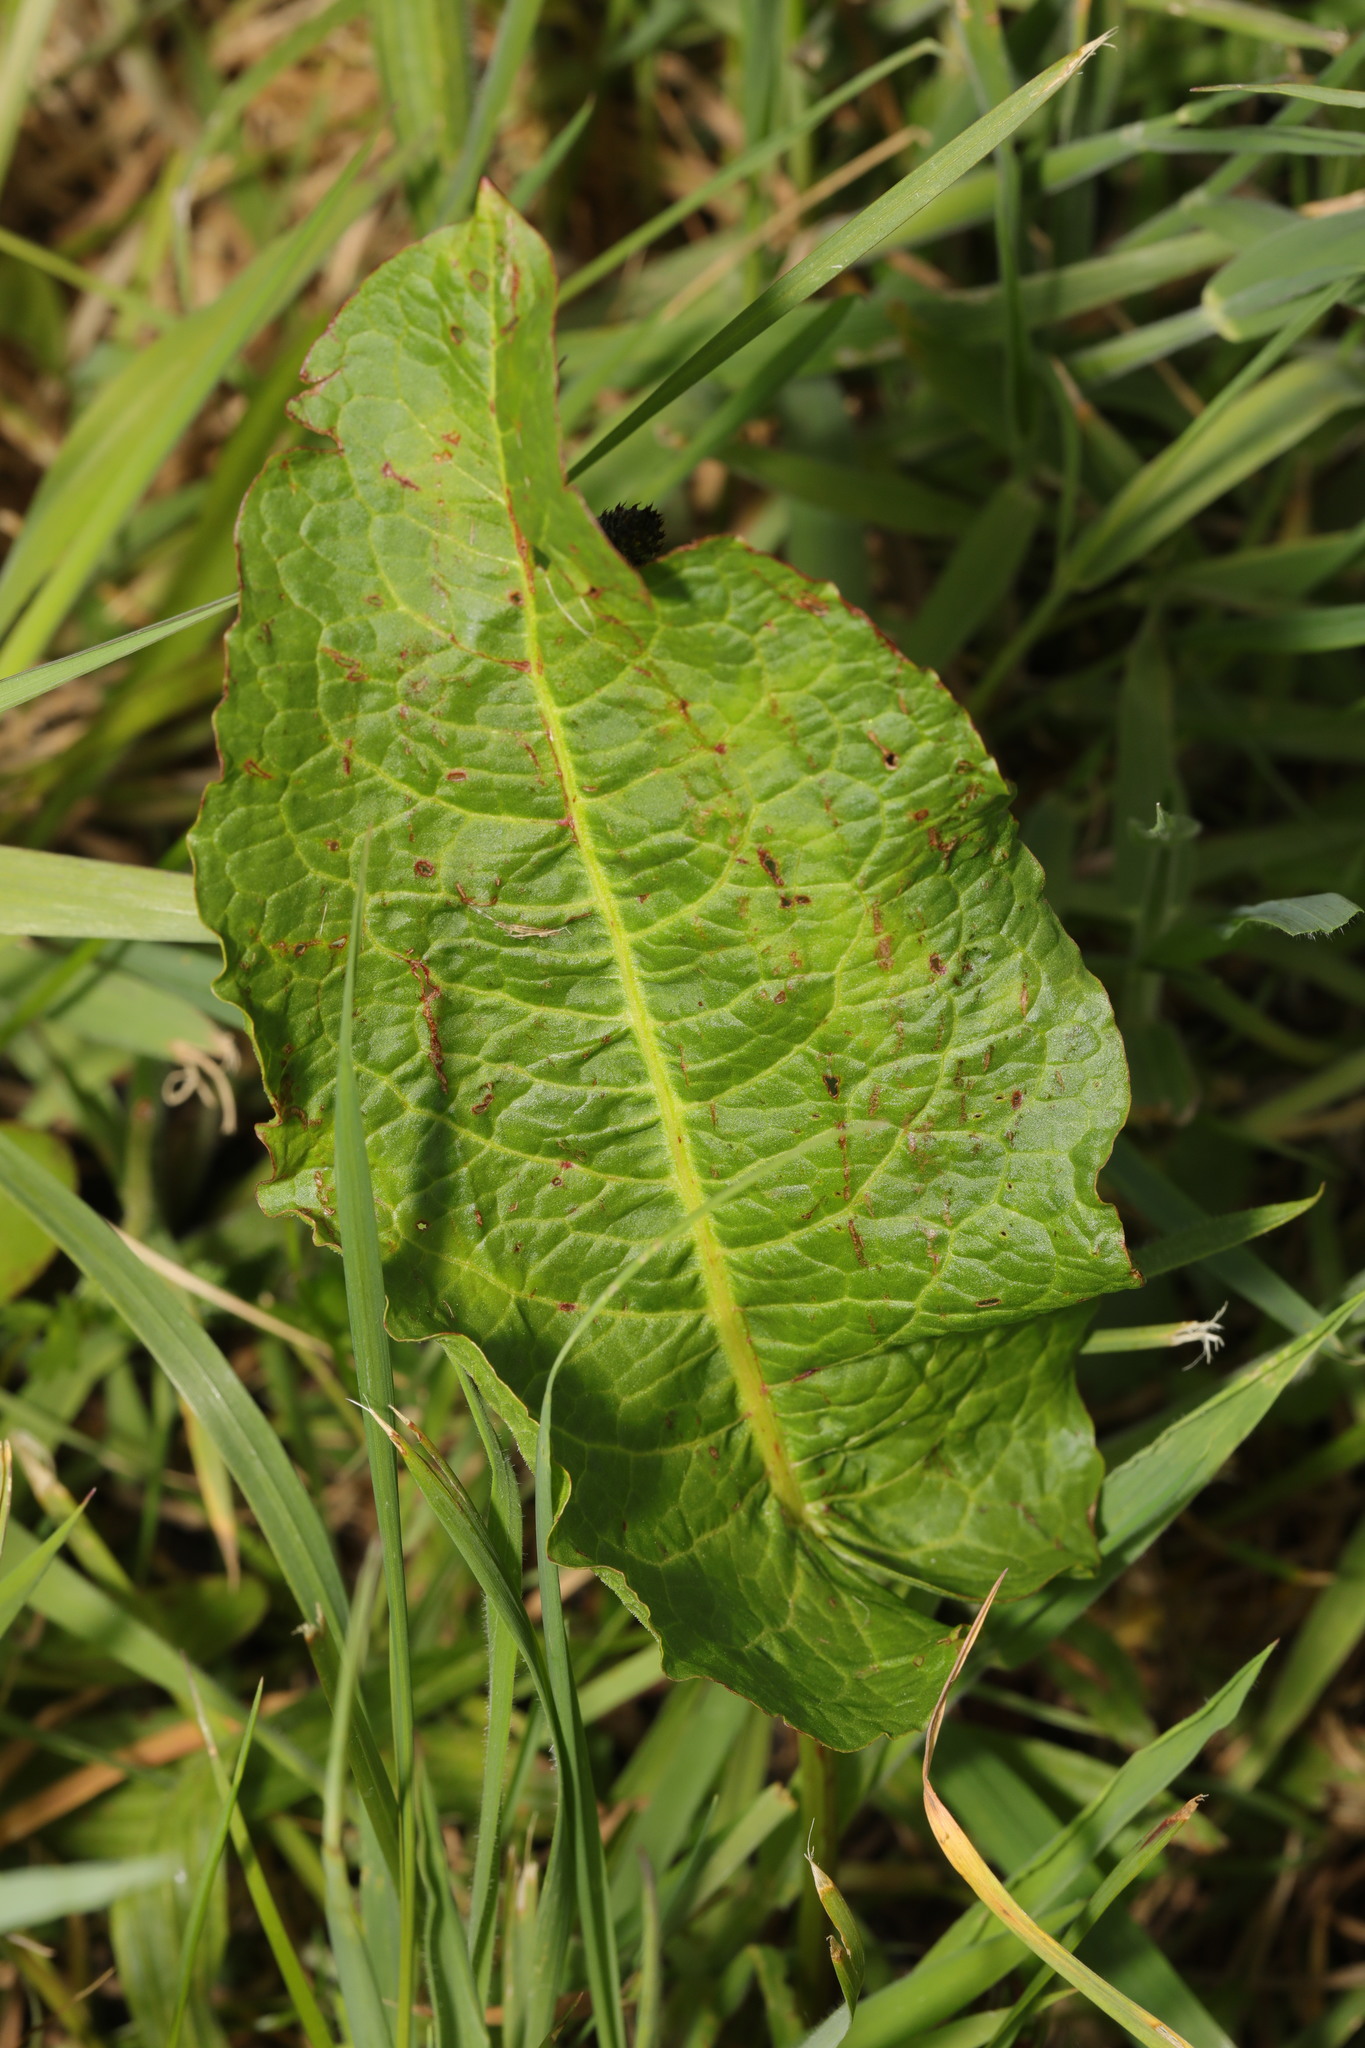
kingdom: Plantae
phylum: Tracheophyta
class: Magnoliopsida
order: Caryophyllales
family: Polygonaceae
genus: Rumex
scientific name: Rumex obtusifolius
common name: Bitter dock
